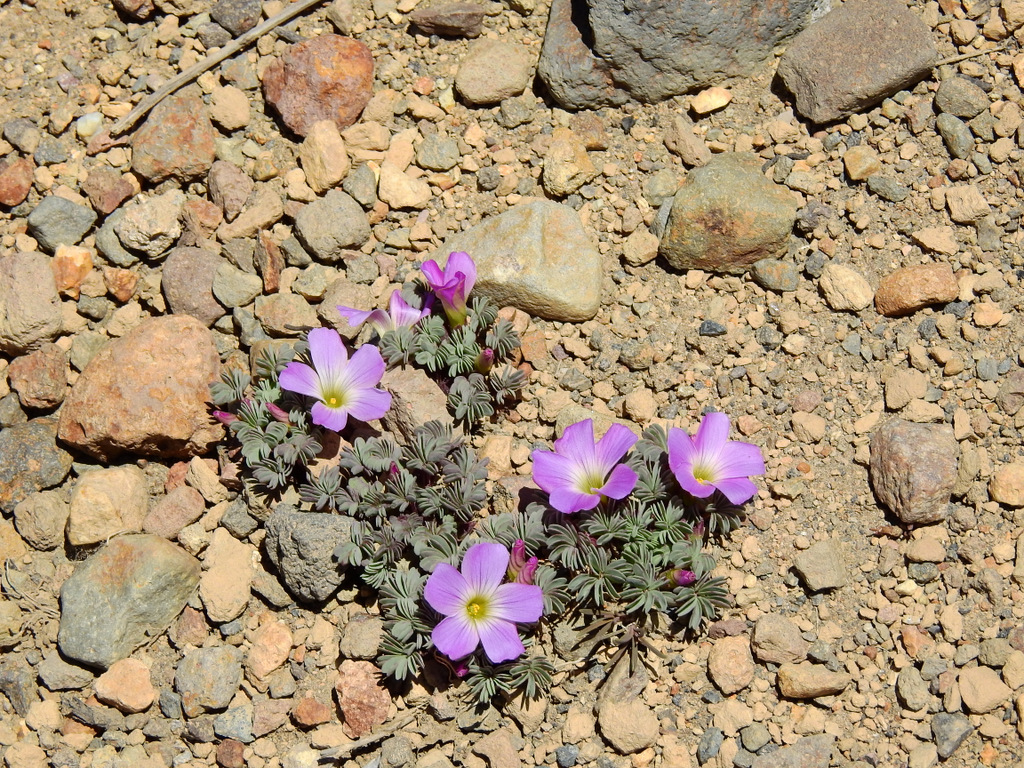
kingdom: Plantae
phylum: Tracheophyta
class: Magnoliopsida
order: Oxalidales
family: Oxalidaceae
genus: Oxalis
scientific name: Oxalis adenophylla
